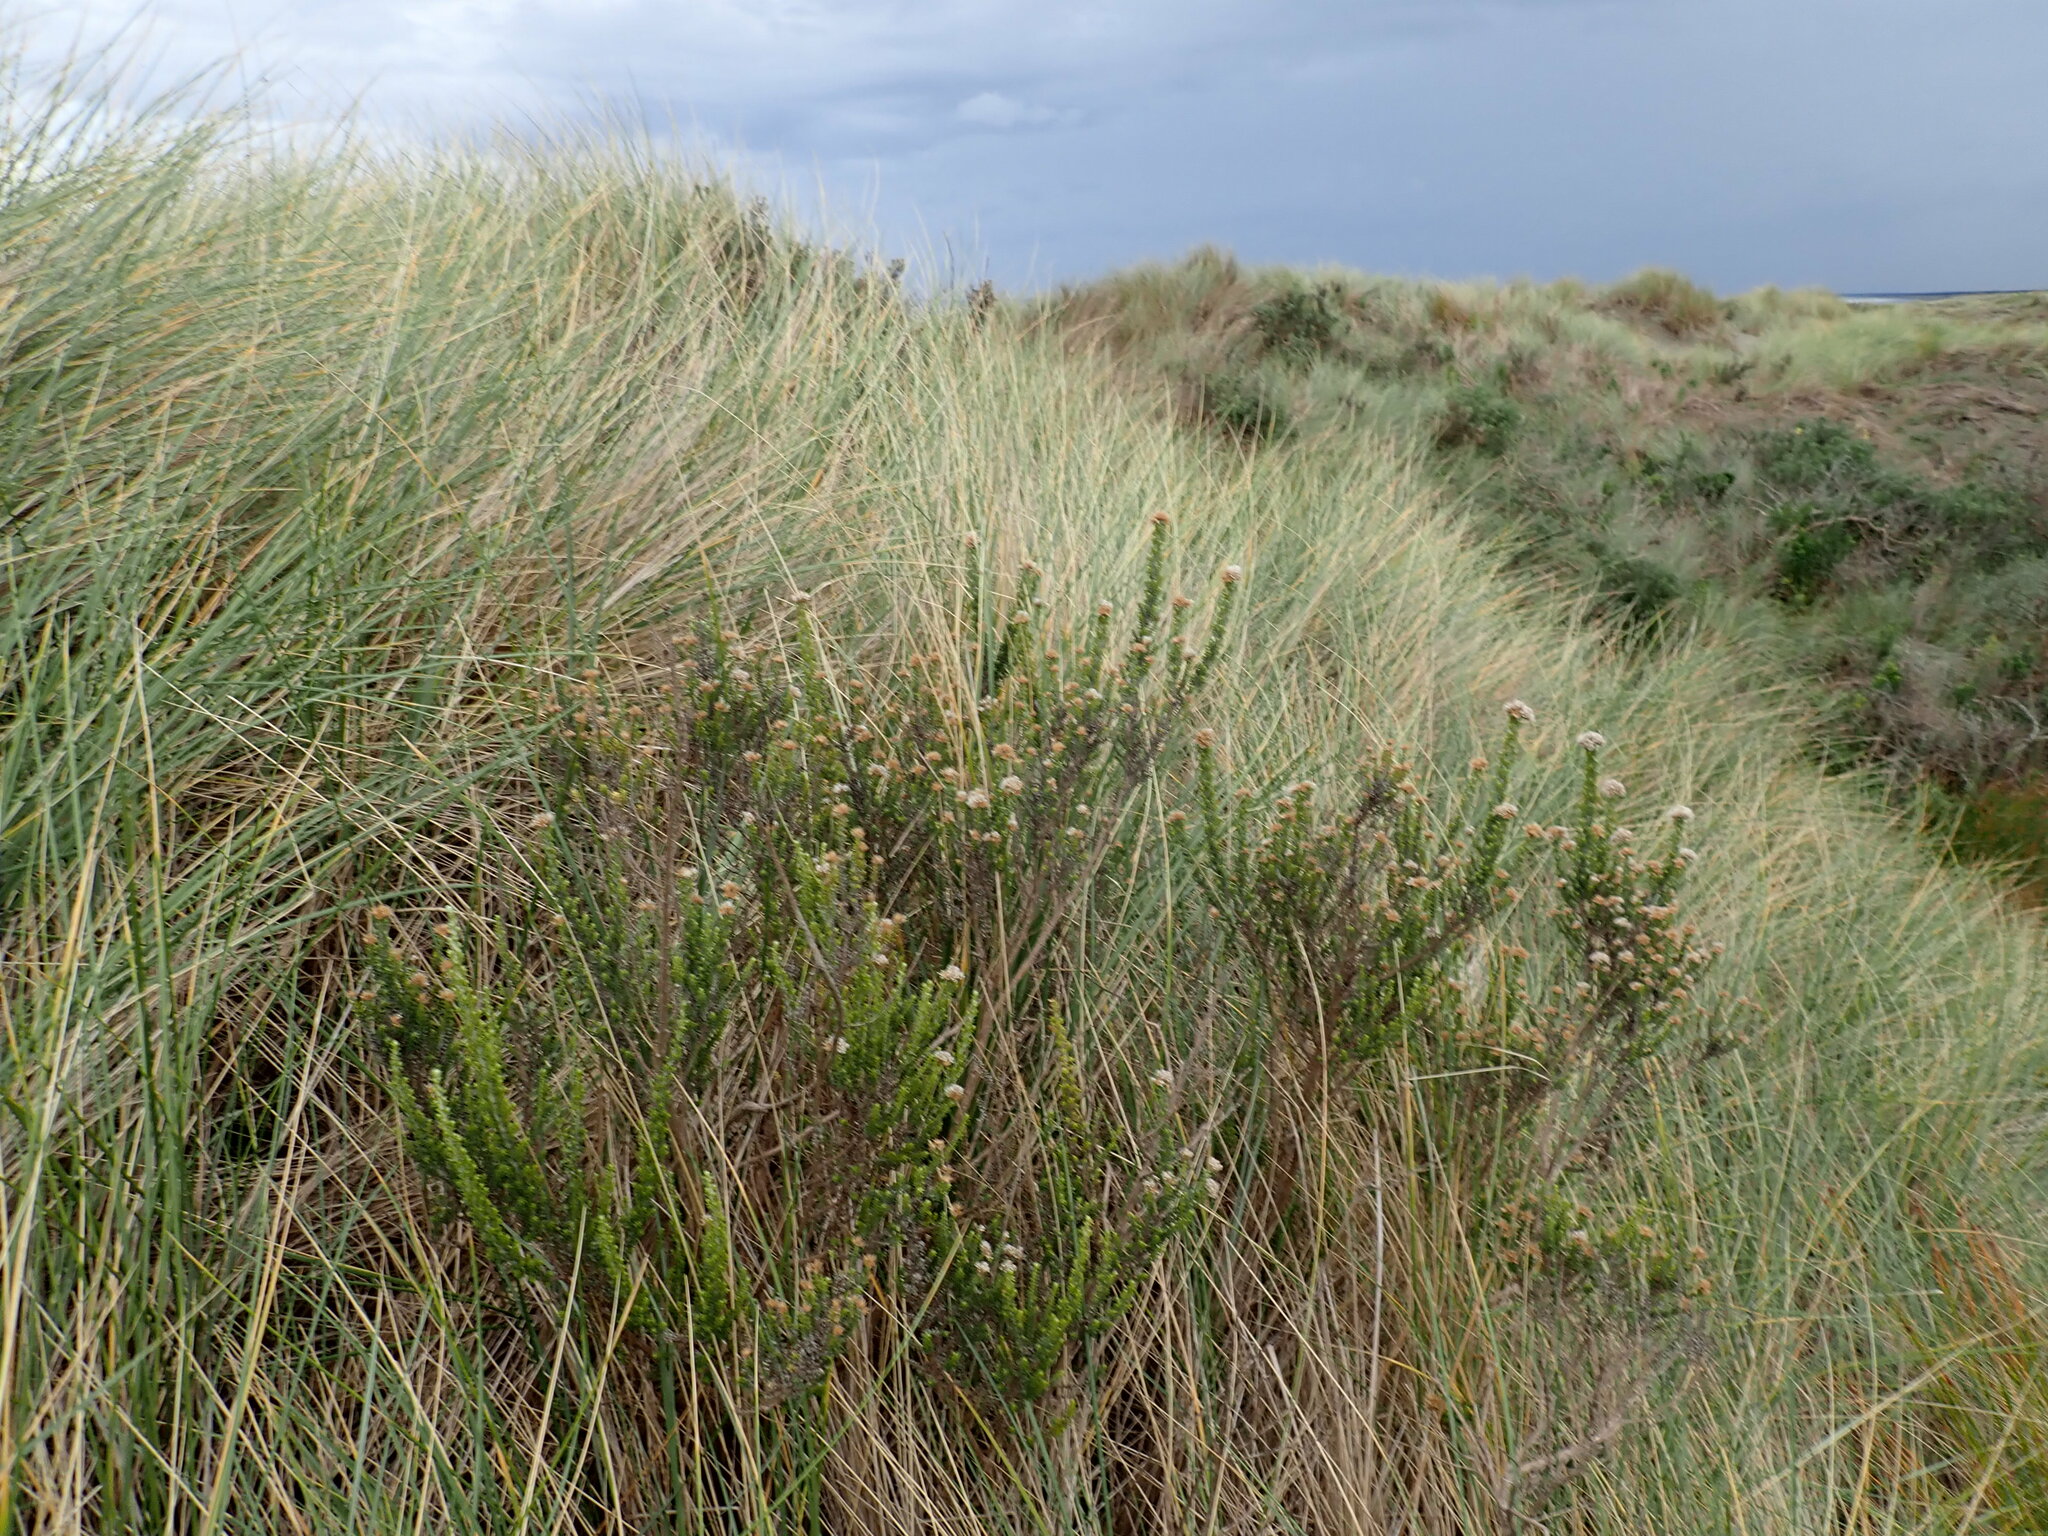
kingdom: Plantae
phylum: Tracheophyta
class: Magnoliopsida
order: Asterales
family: Asteraceae
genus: Ozothamnus
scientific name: Ozothamnus leptophyllus
